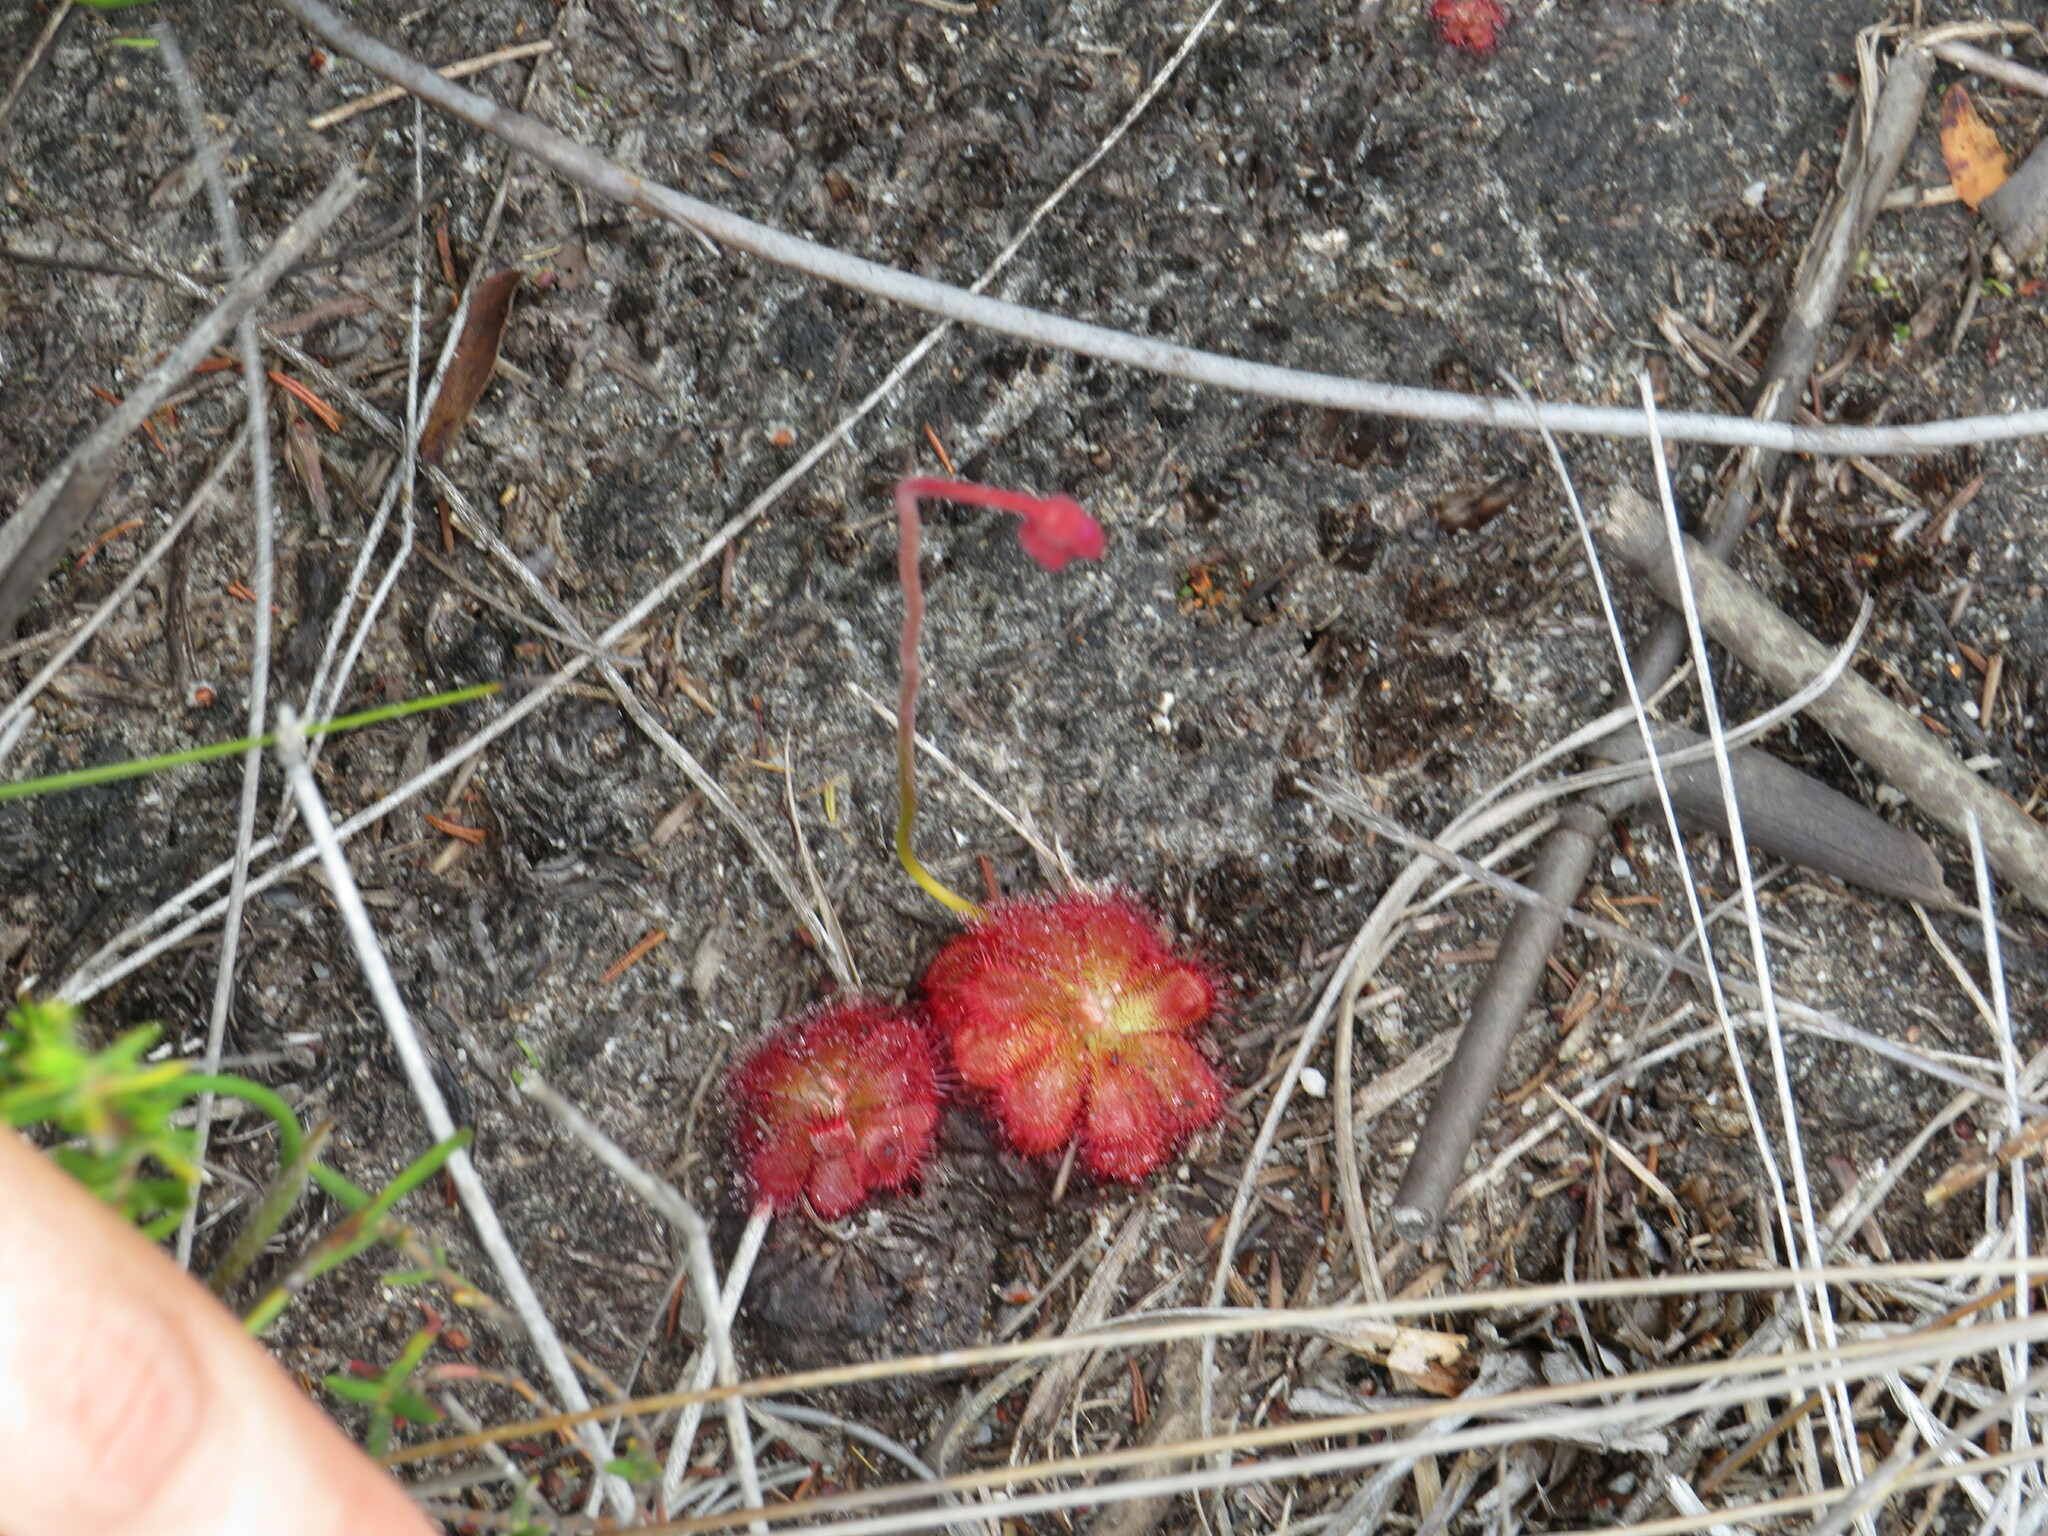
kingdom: Plantae
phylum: Tracheophyta
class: Magnoliopsida
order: Caryophyllales
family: Droseraceae
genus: Drosera
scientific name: Drosera aliciae
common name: Alice sundew
